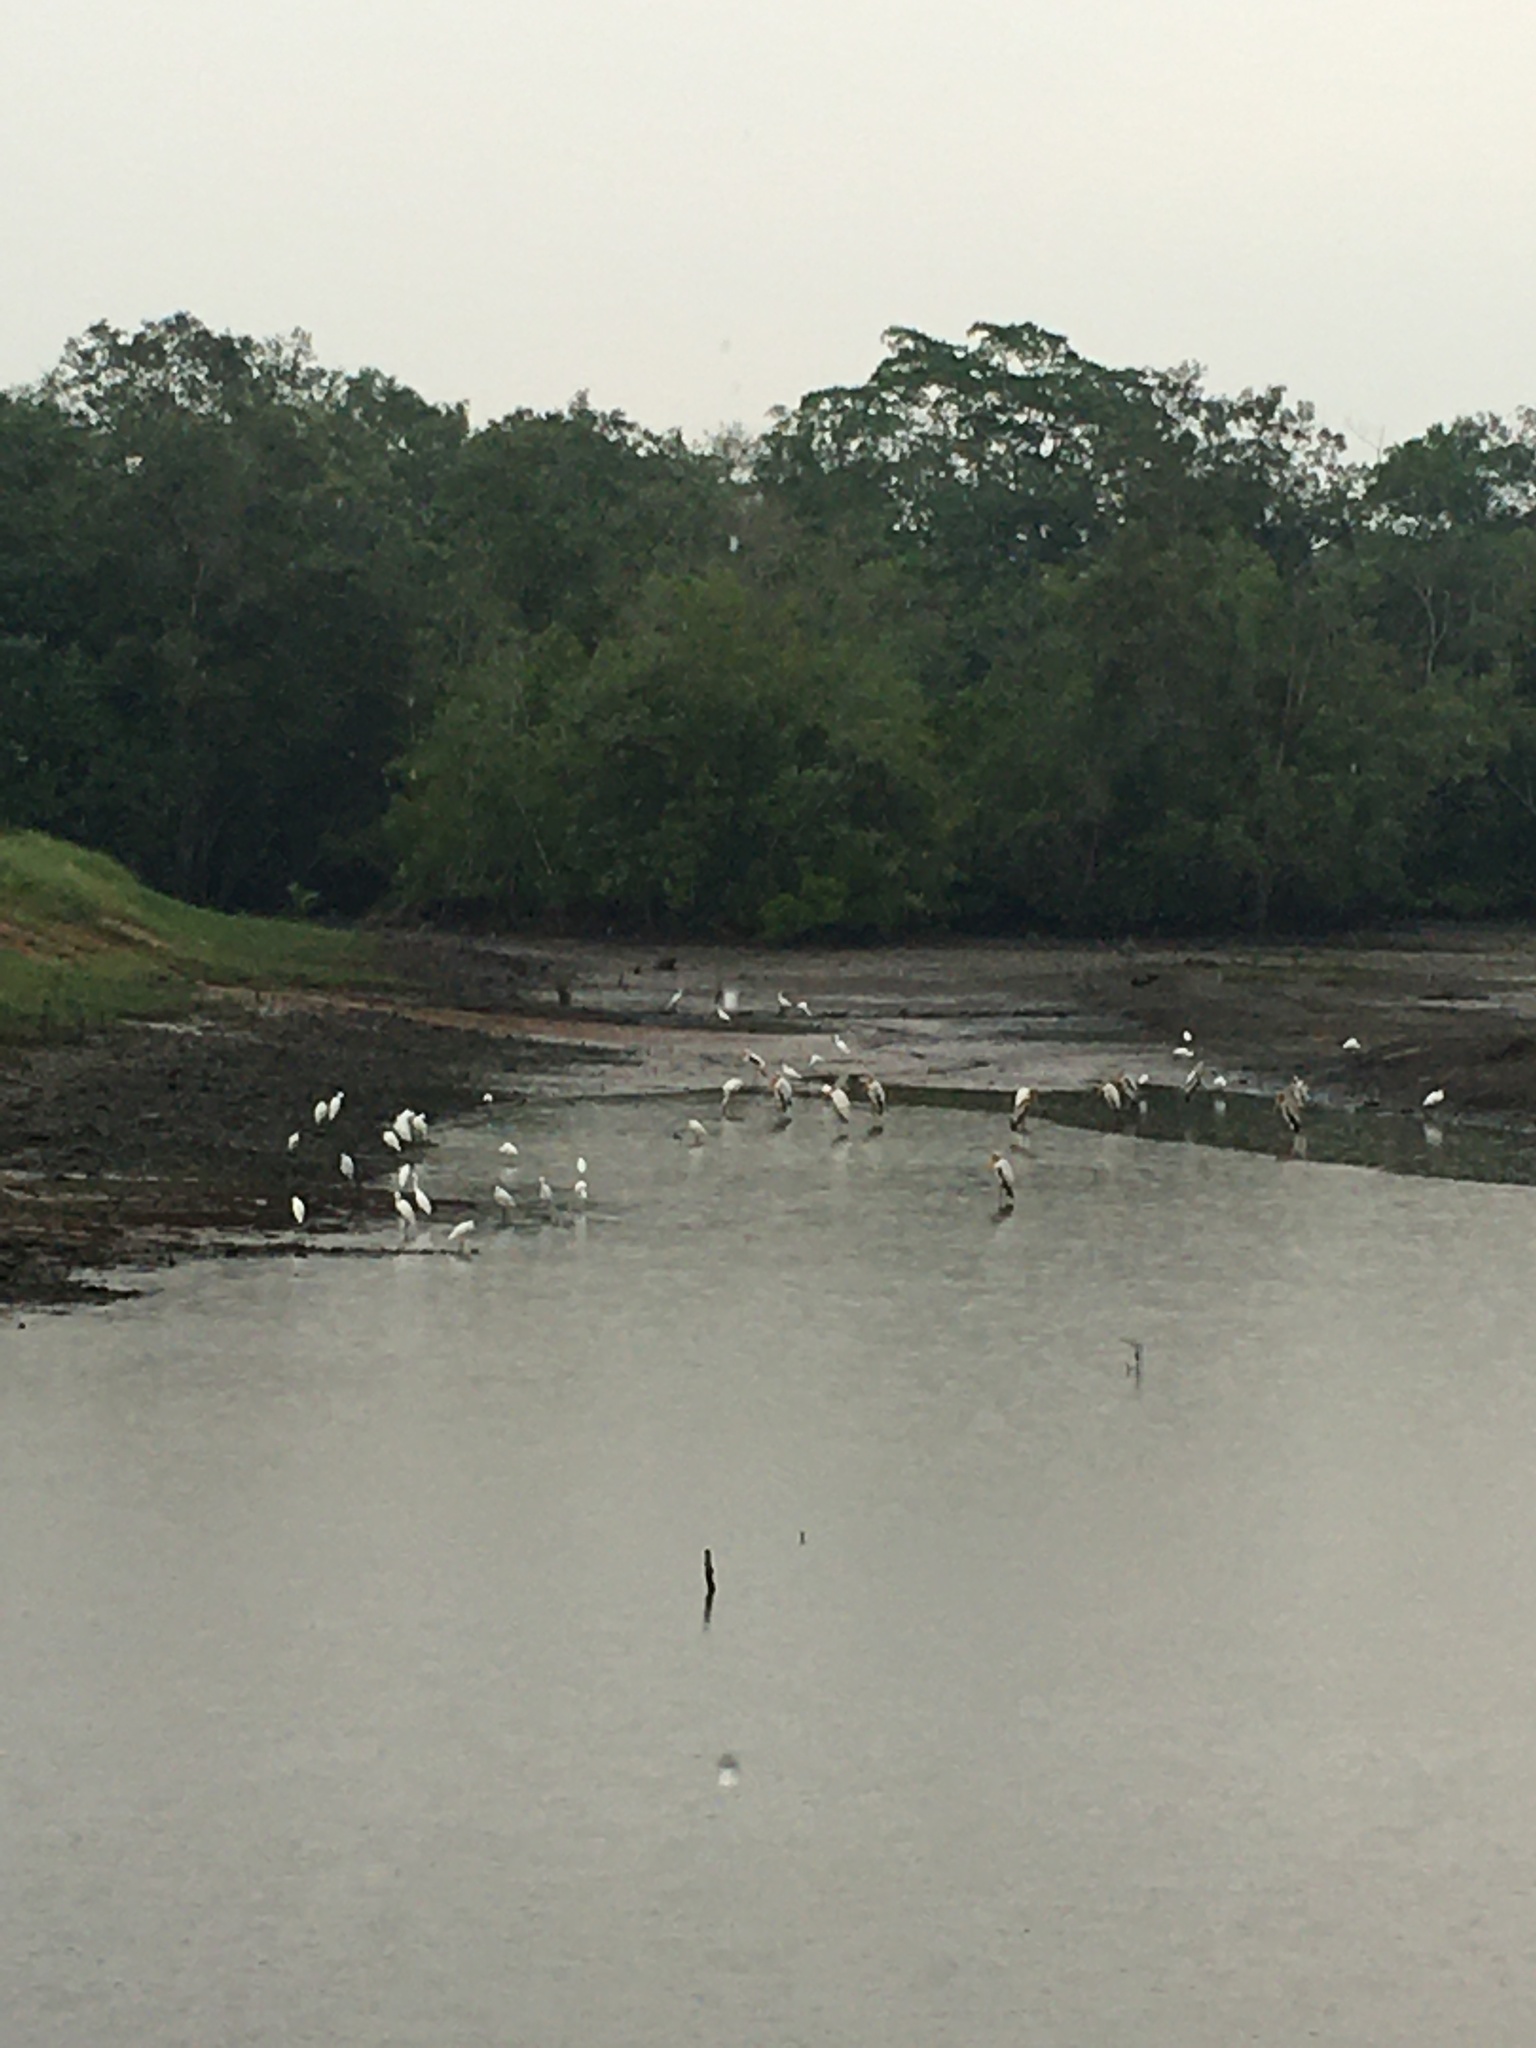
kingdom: Animalia
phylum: Chordata
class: Aves
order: Pelecaniformes
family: Ardeidae
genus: Egretta
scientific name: Egretta garzetta
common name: Little egret
